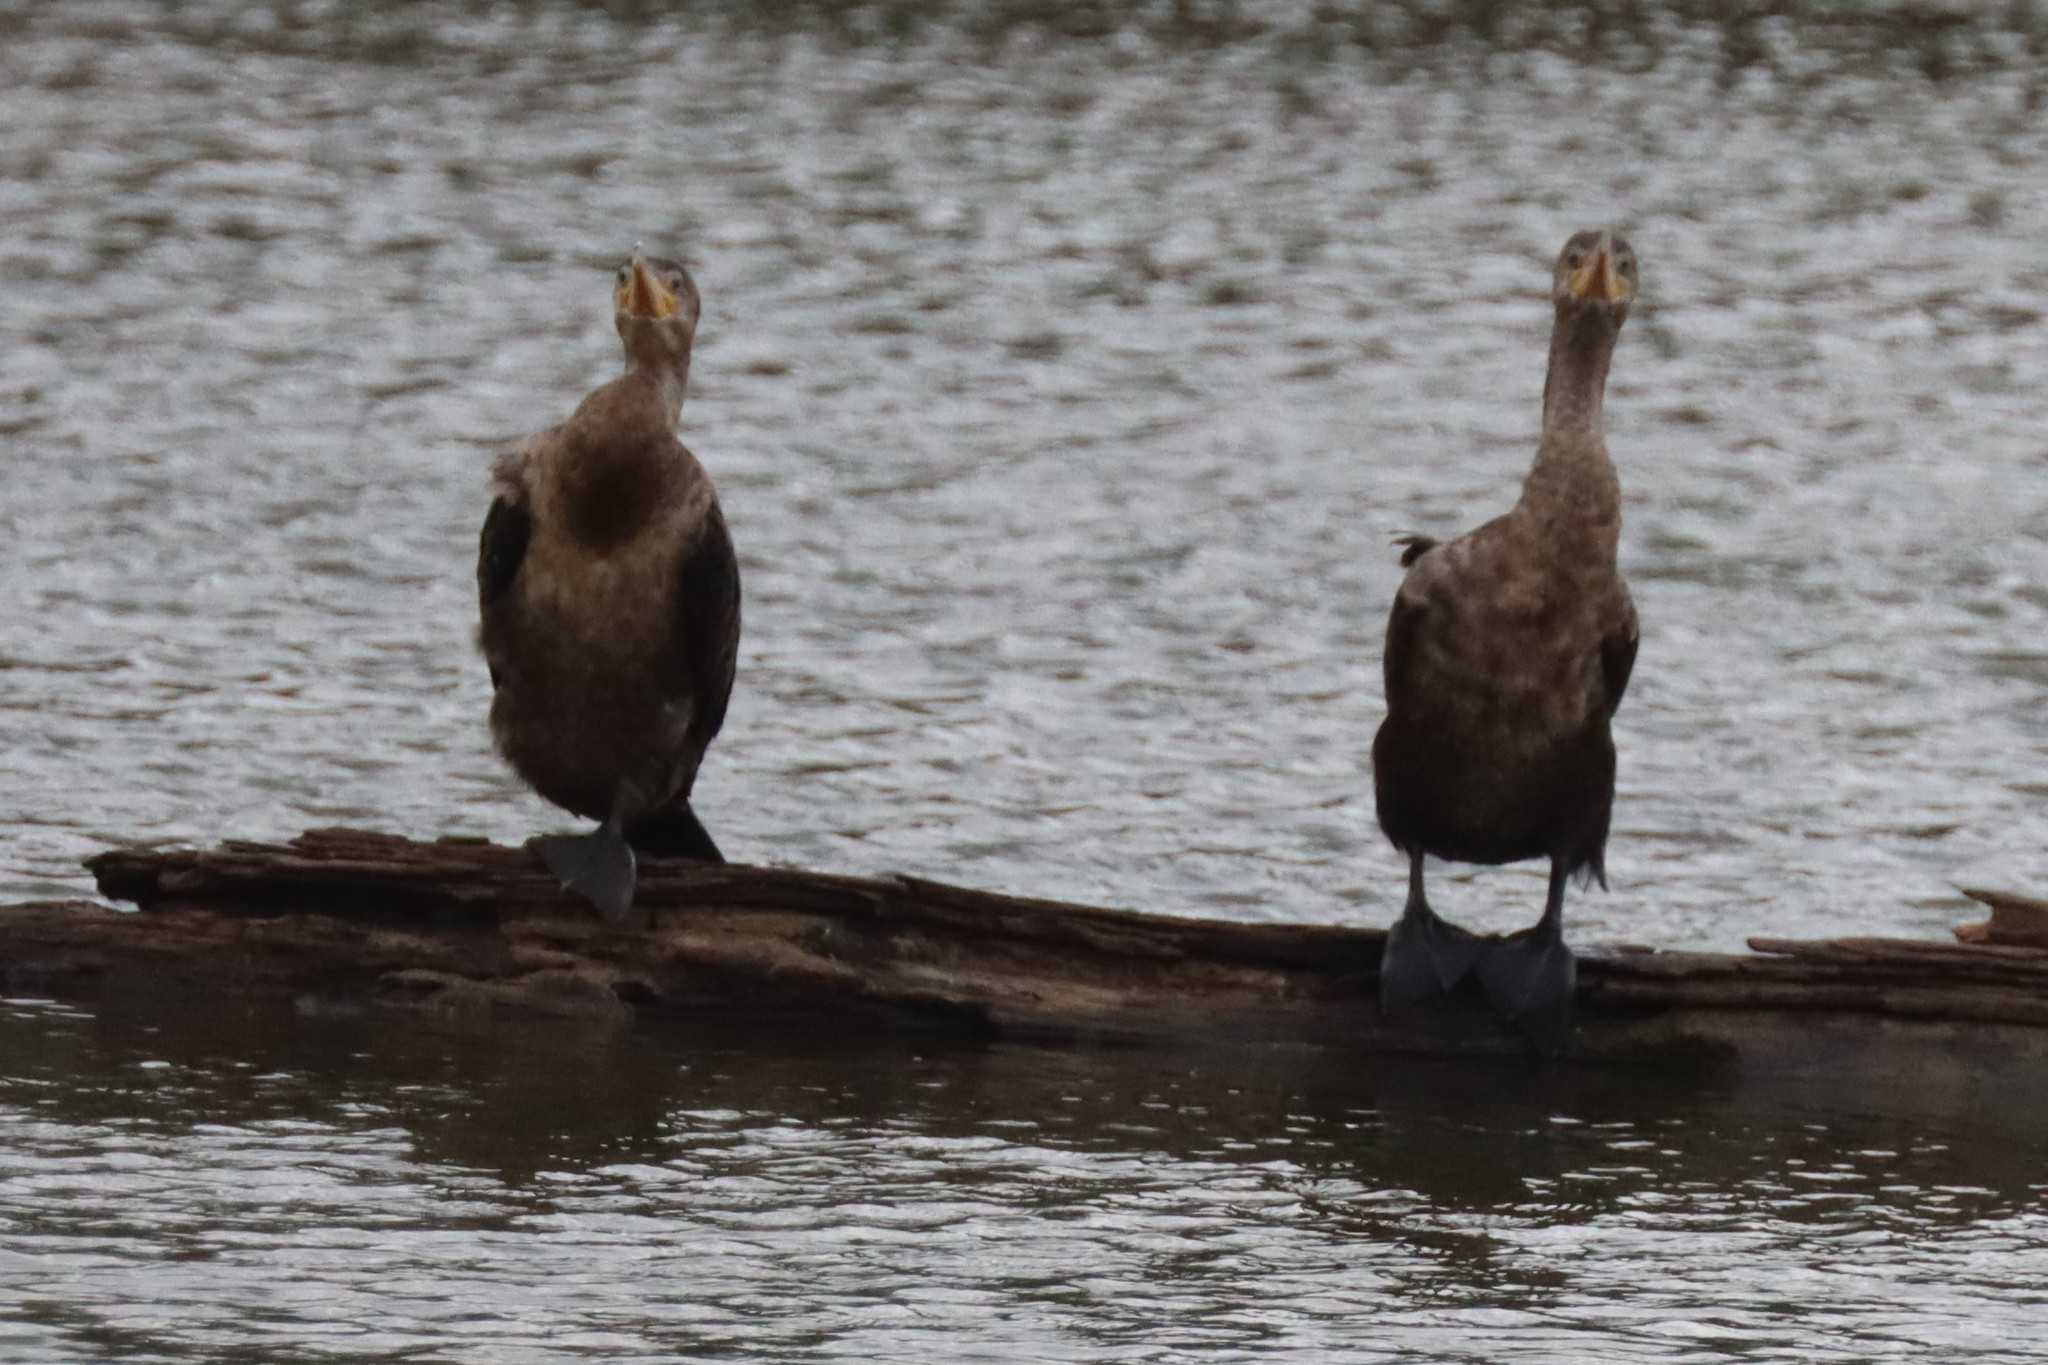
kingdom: Animalia
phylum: Chordata
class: Aves
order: Suliformes
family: Phalacrocoracidae
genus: Phalacrocorax
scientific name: Phalacrocorax auritus
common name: Double-crested cormorant
